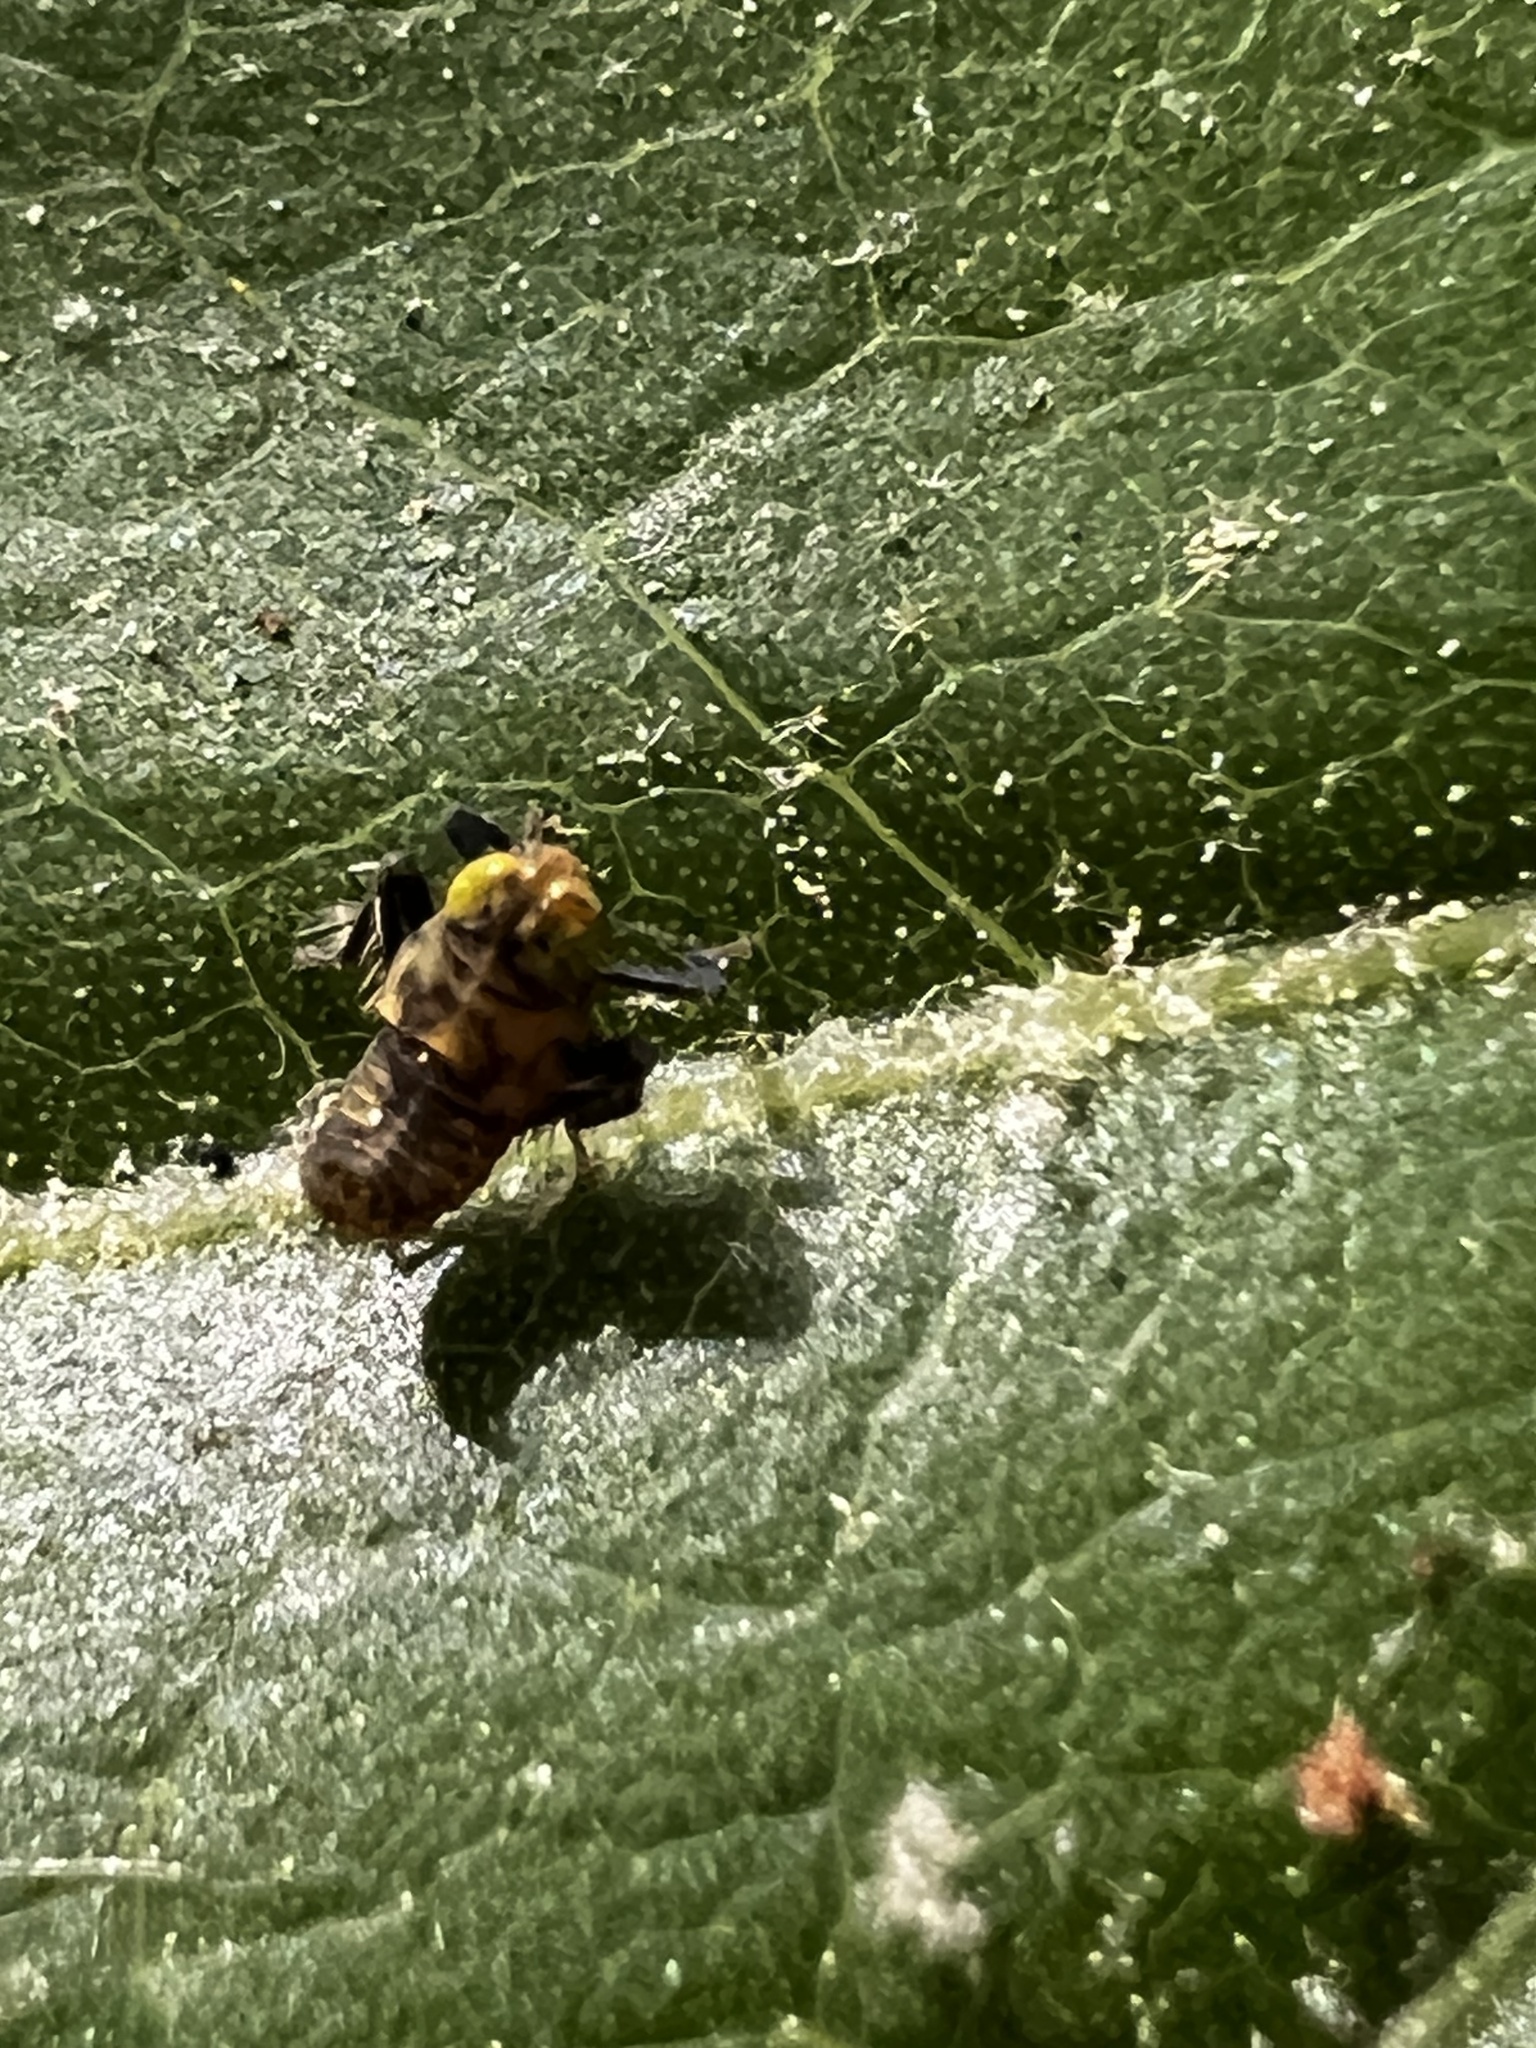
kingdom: Animalia
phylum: Arthropoda
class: Insecta
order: Hemiptera
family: Cicadellidae
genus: Jikradia
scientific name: Jikradia olitoria
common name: Coppery leafhopper
